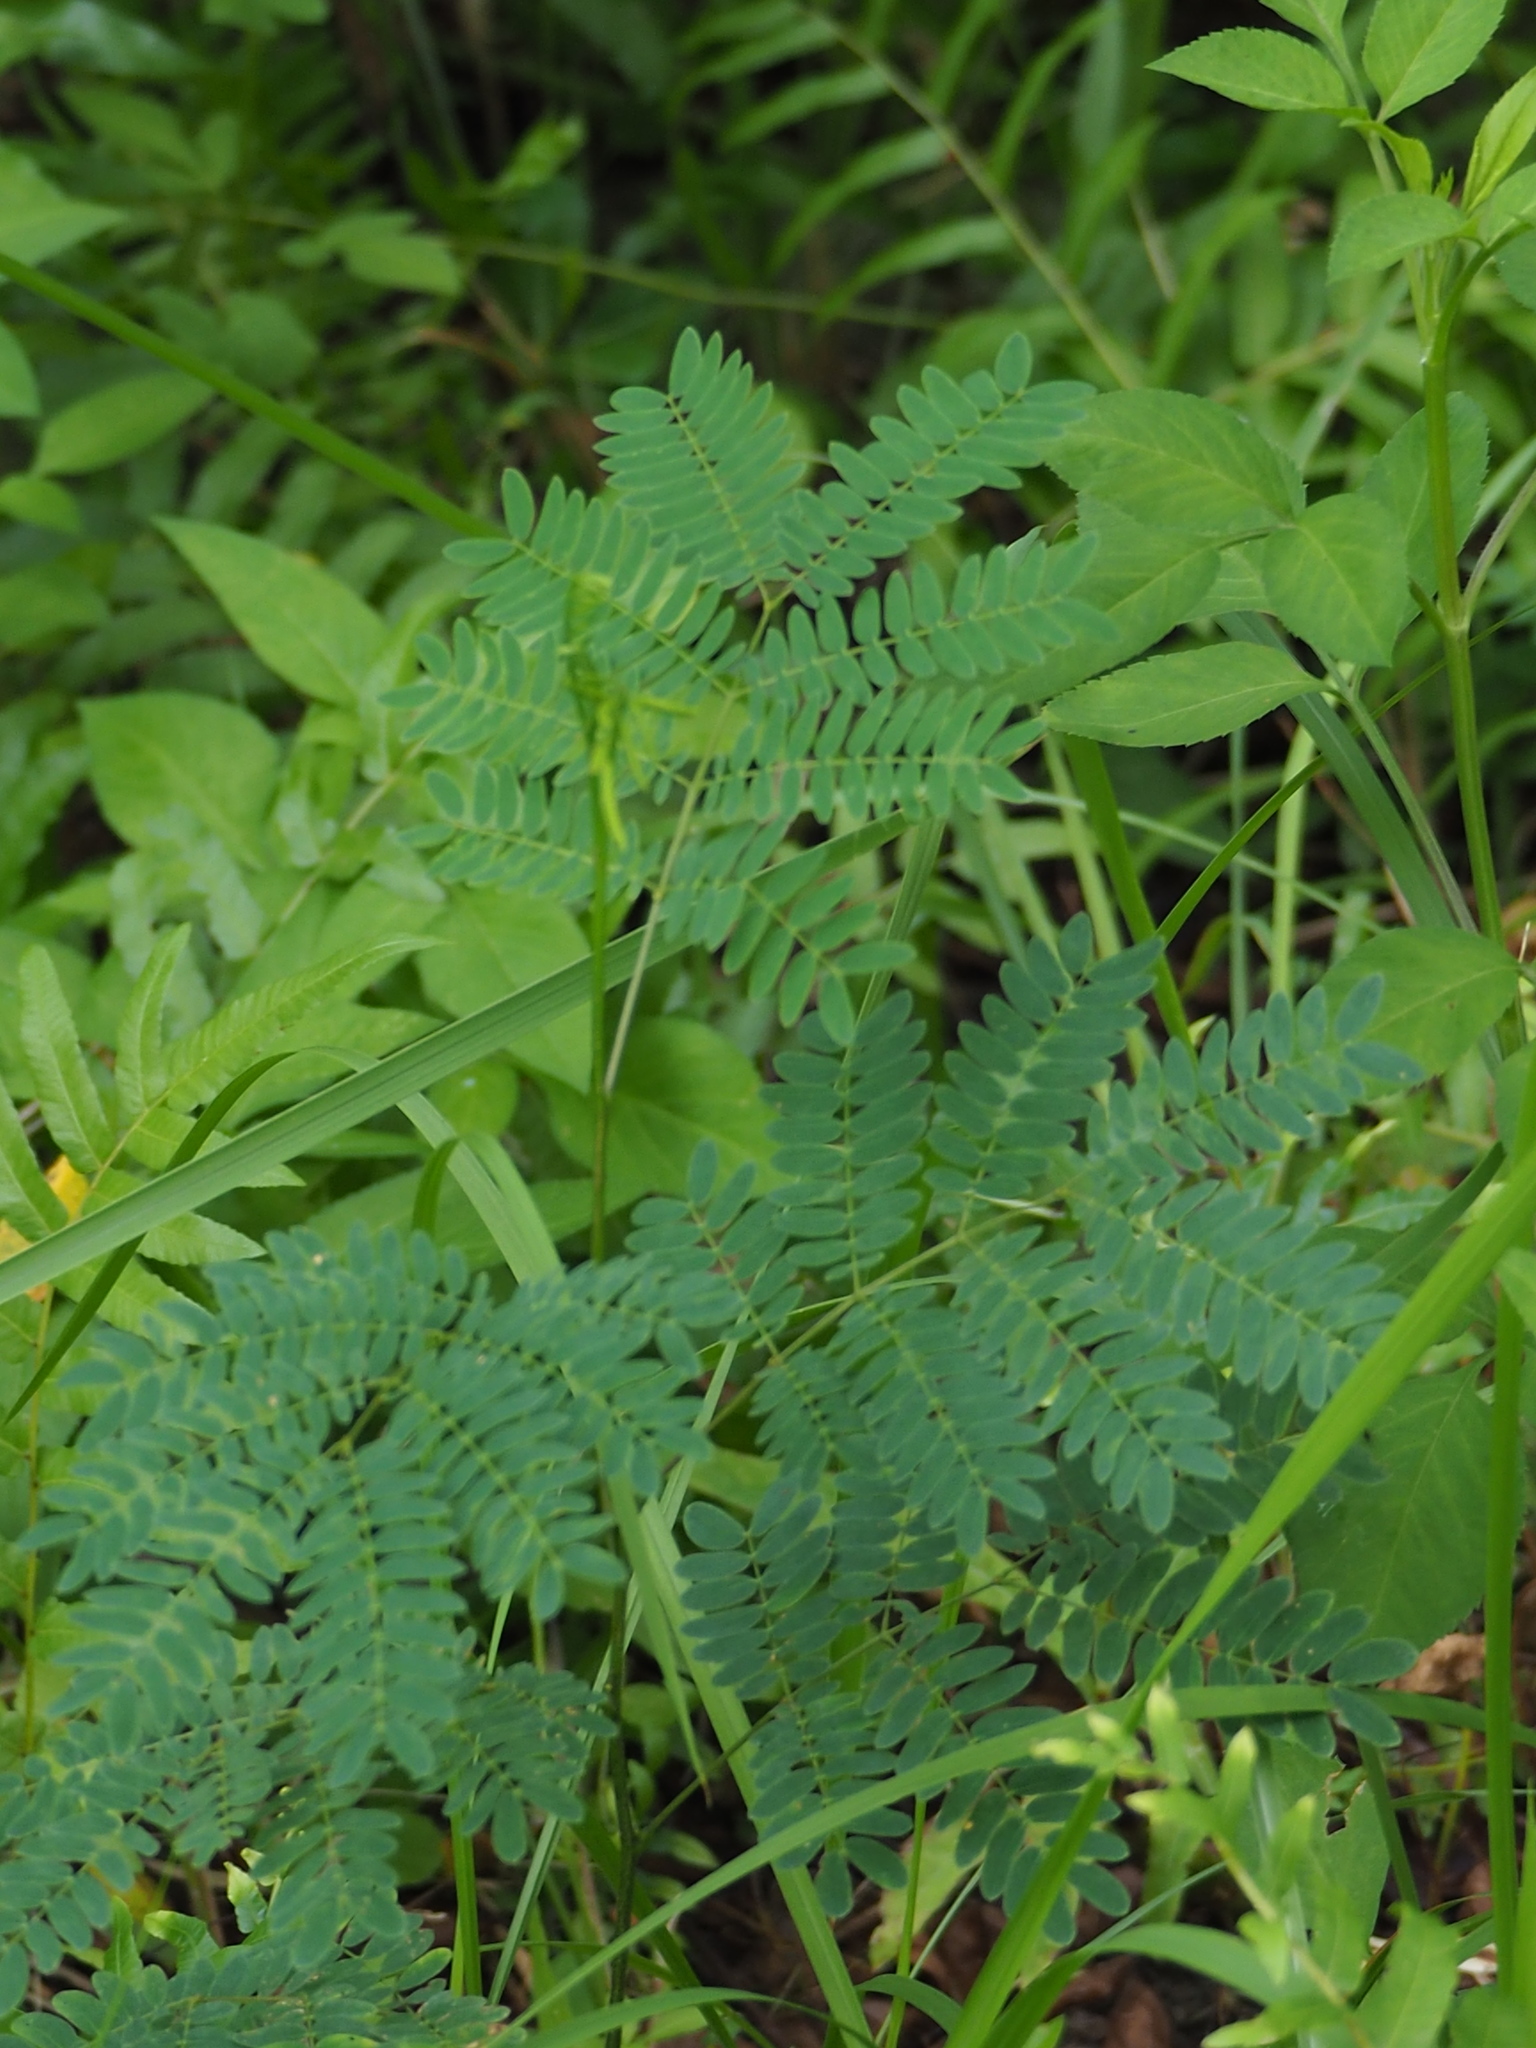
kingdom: Plantae
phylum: Tracheophyta
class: Magnoliopsida
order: Fabales
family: Fabaceae
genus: Leucaena
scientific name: Leucaena leucocephala
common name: White leadtree
